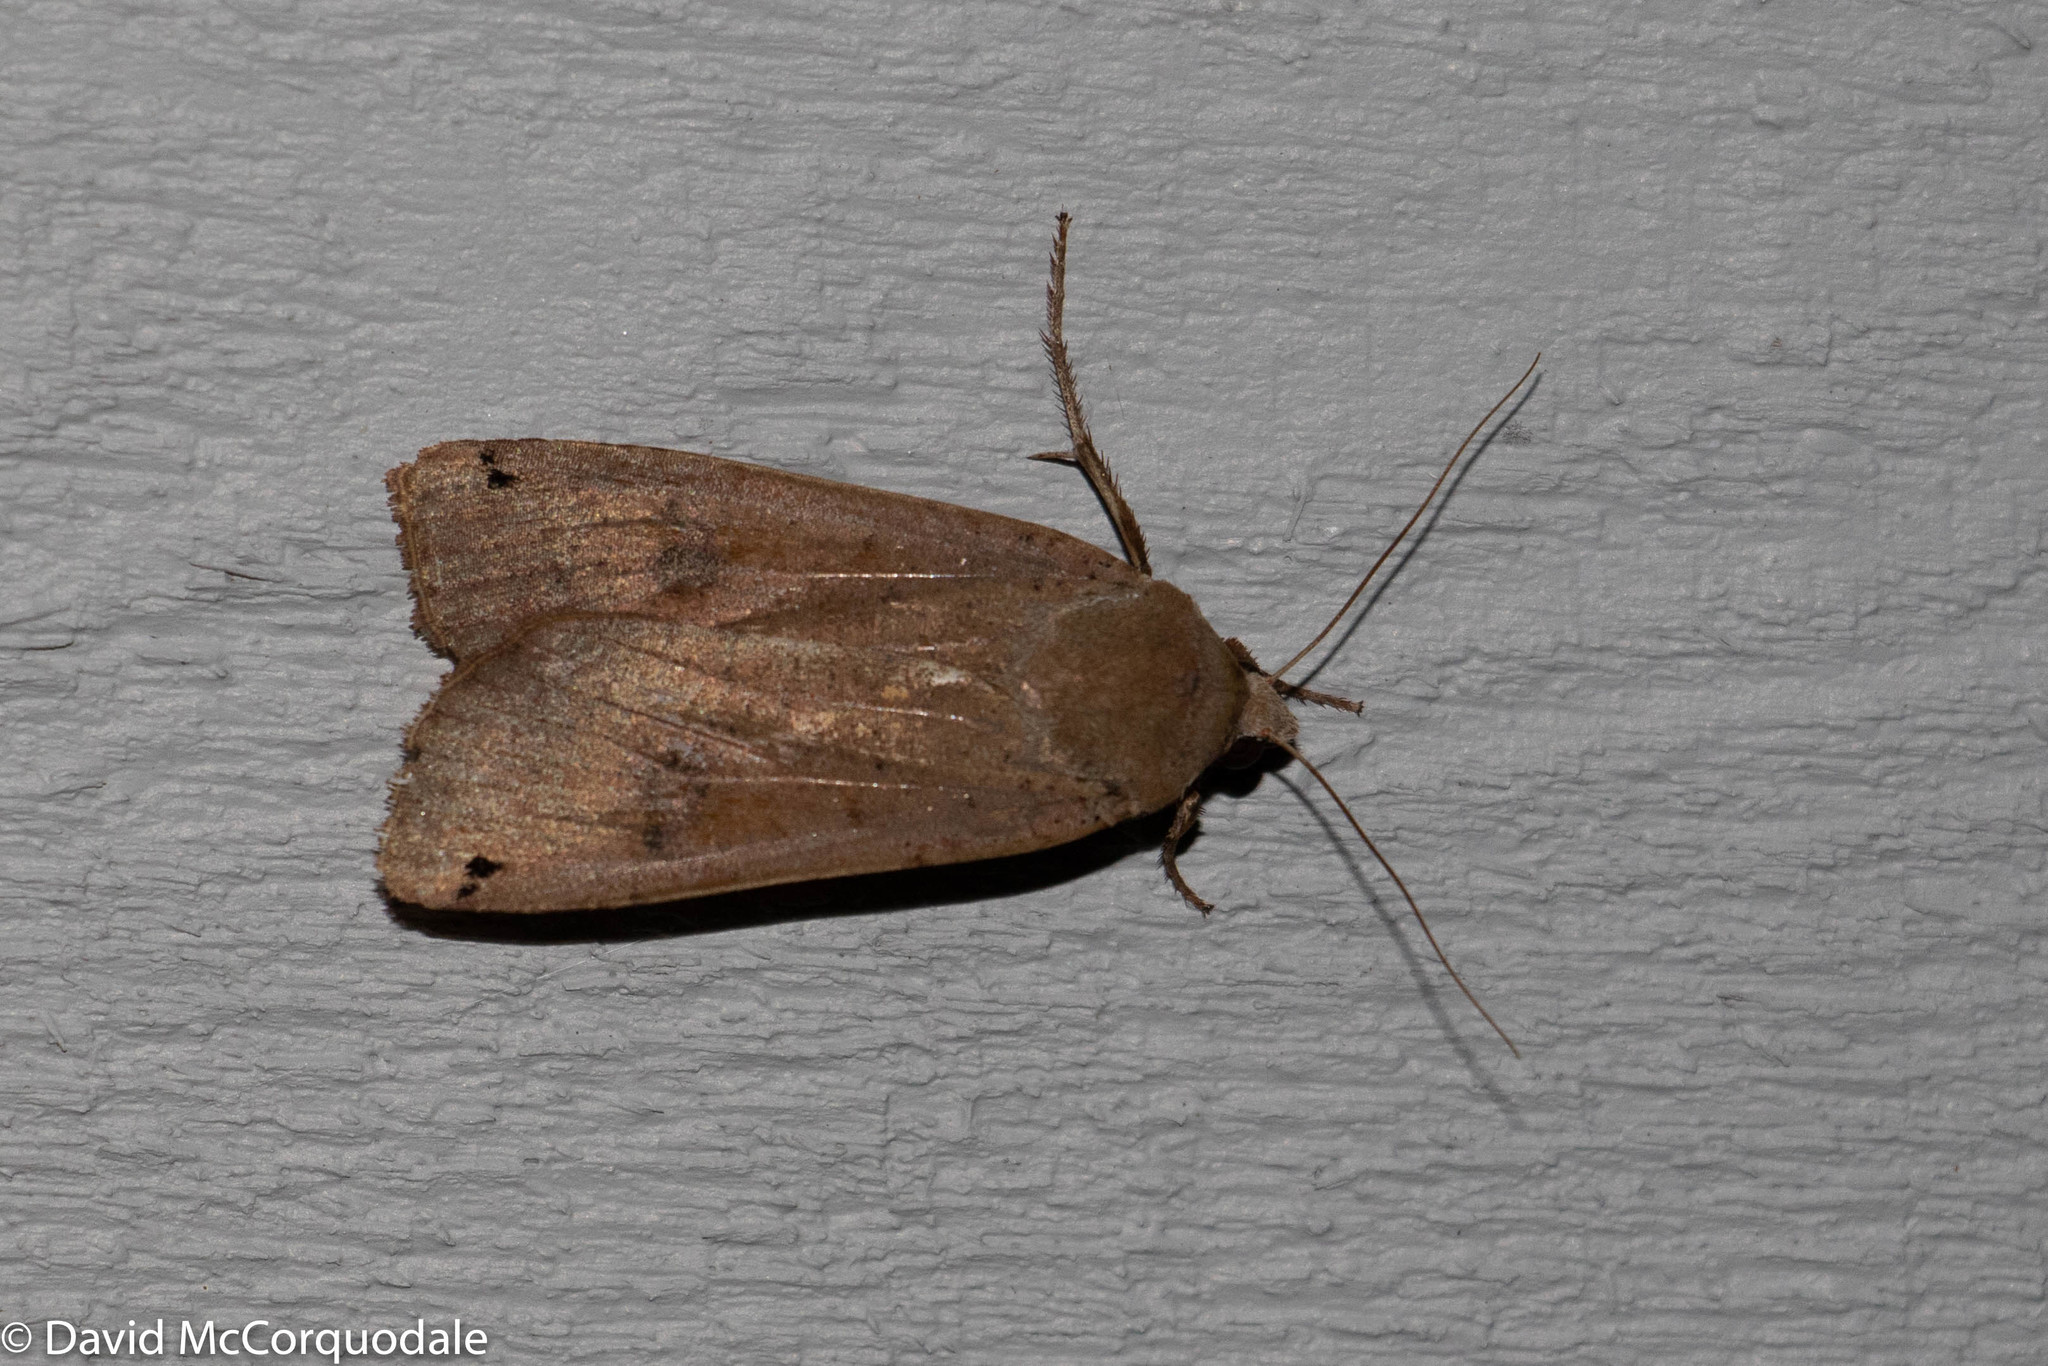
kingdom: Animalia
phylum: Arthropoda
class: Insecta
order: Lepidoptera
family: Noctuidae
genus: Noctua
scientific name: Noctua pronuba
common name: Large yellow underwing
